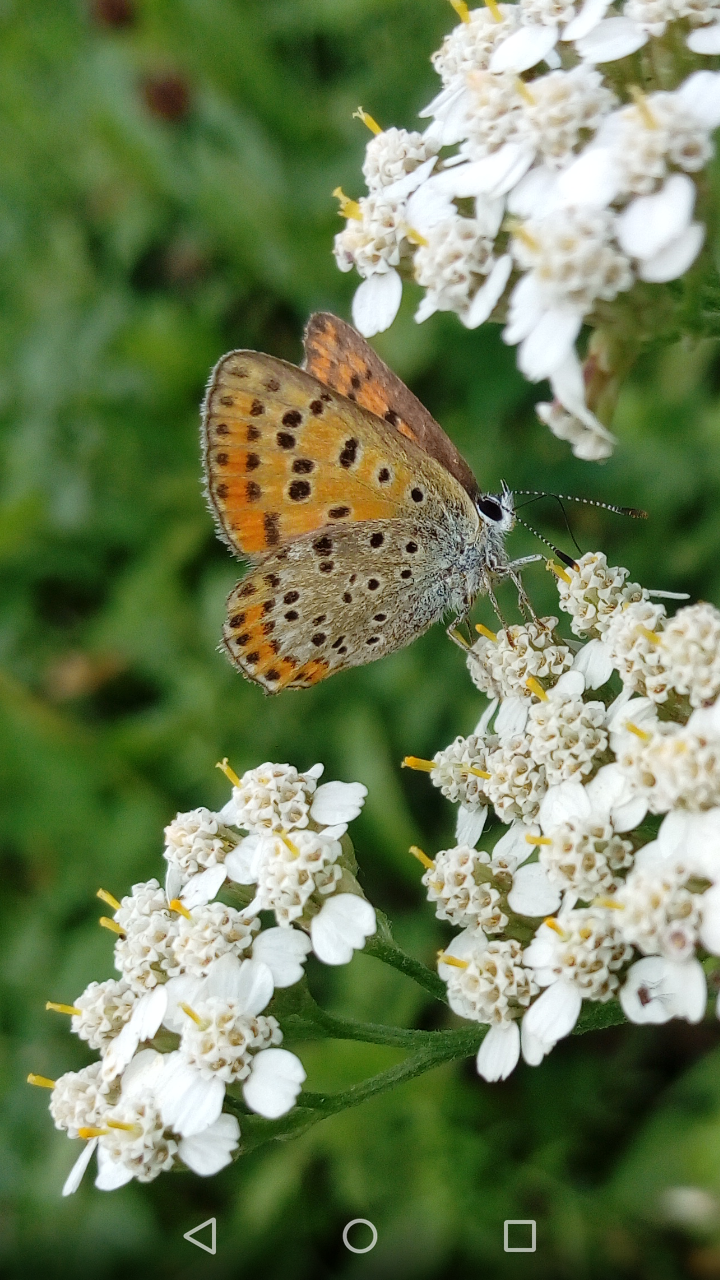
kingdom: Animalia
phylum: Arthropoda
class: Insecta
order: Lepidoptera
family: Lycaenidae
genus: Loweia
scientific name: Loweia tityrus
